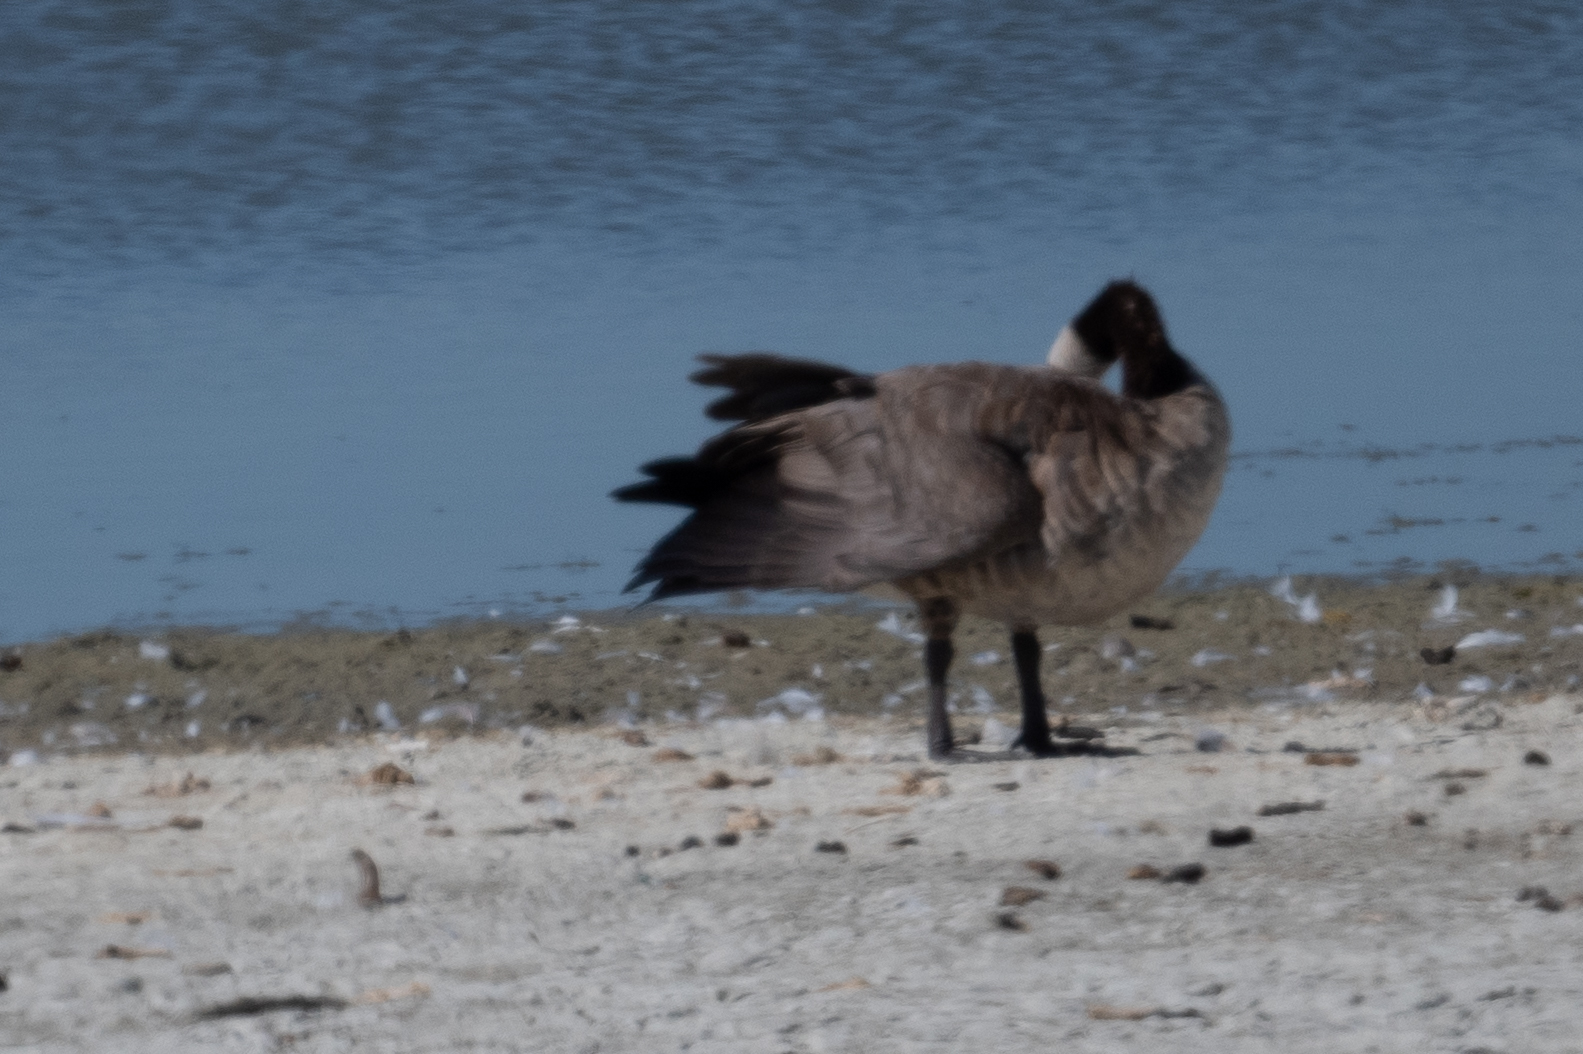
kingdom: Animalia
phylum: Chordata
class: Aves
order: Anseriformes
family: Anatidae
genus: Branta
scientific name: Branta canadensis
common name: Canada goose
